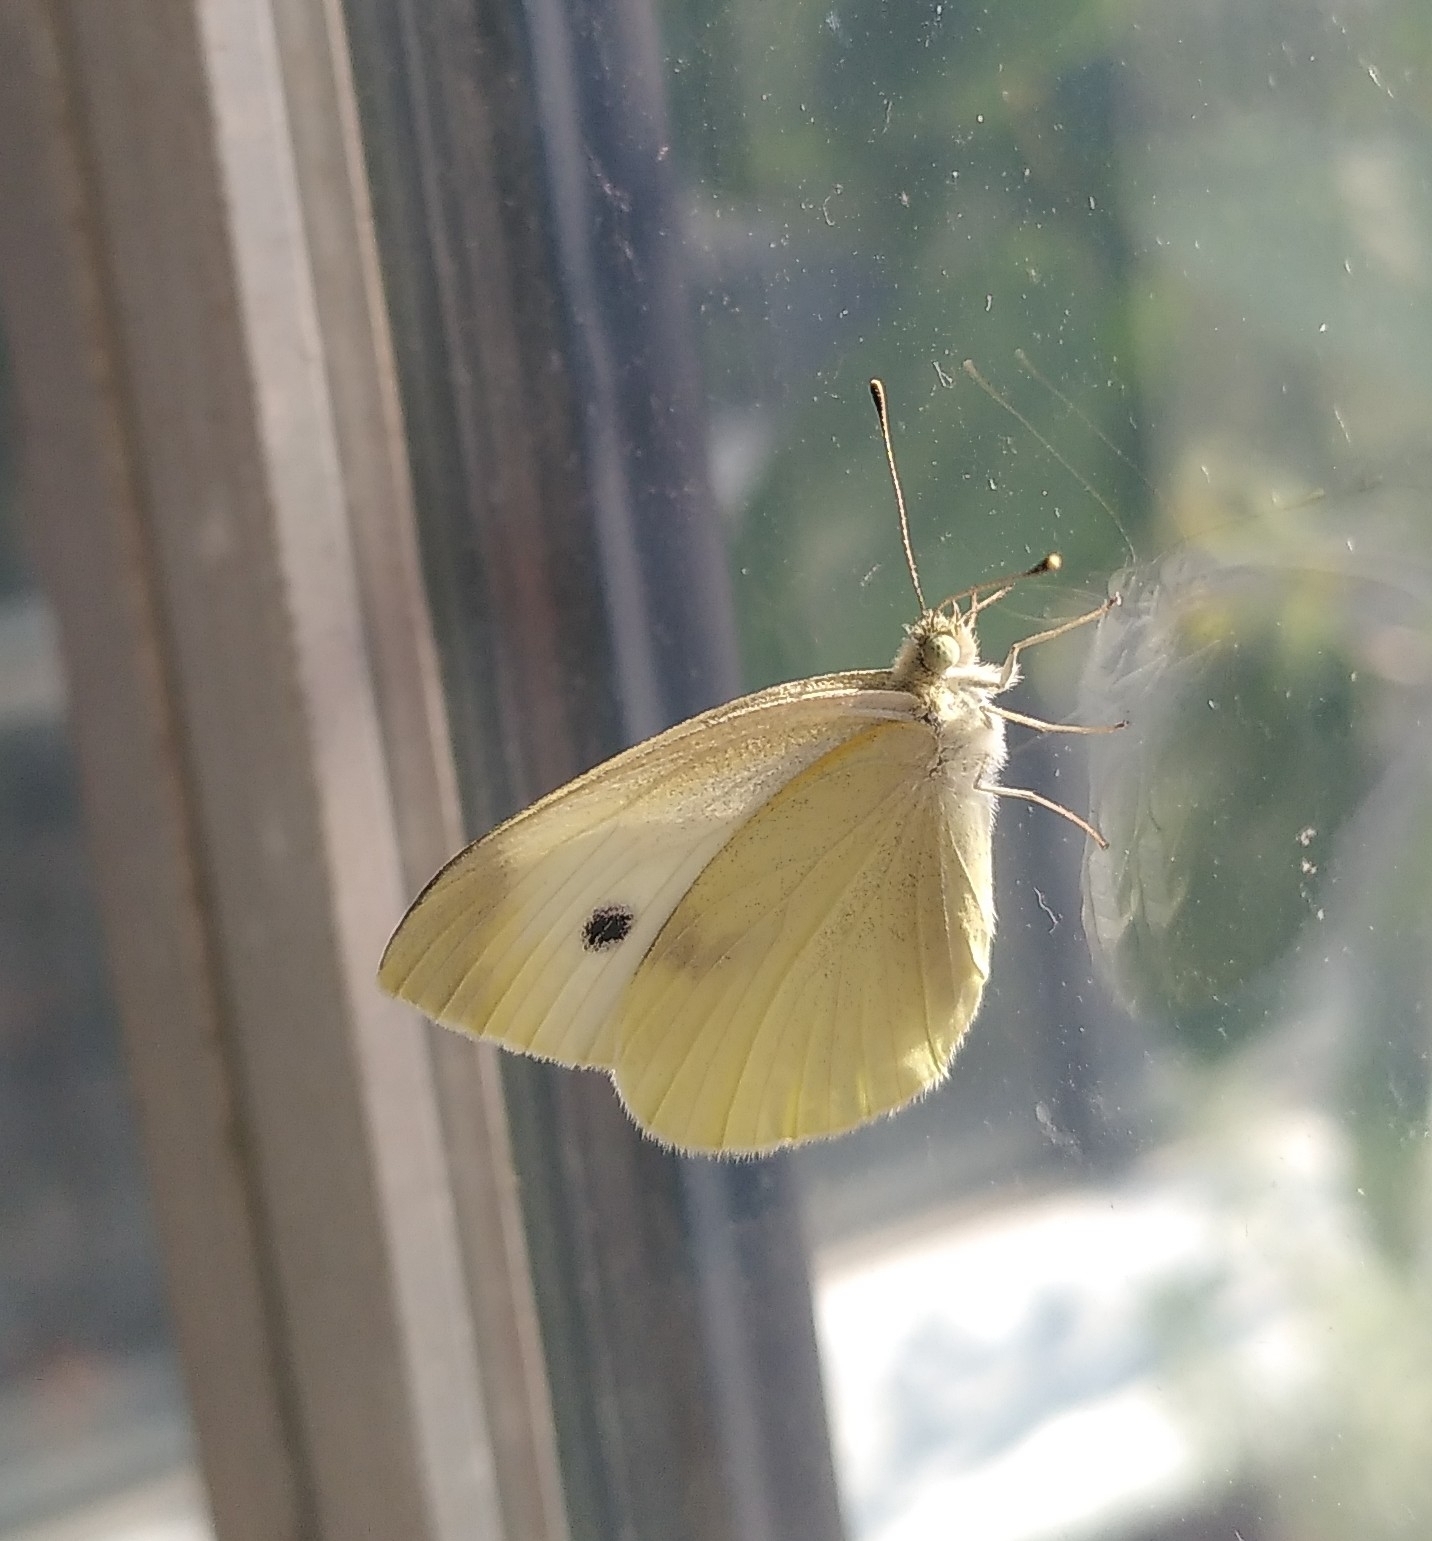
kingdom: Animalia
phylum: Arthropoda
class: Insecta
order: Lepidoptera
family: Pieridae
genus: Pieris
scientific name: Pieris rapae
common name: Small white
